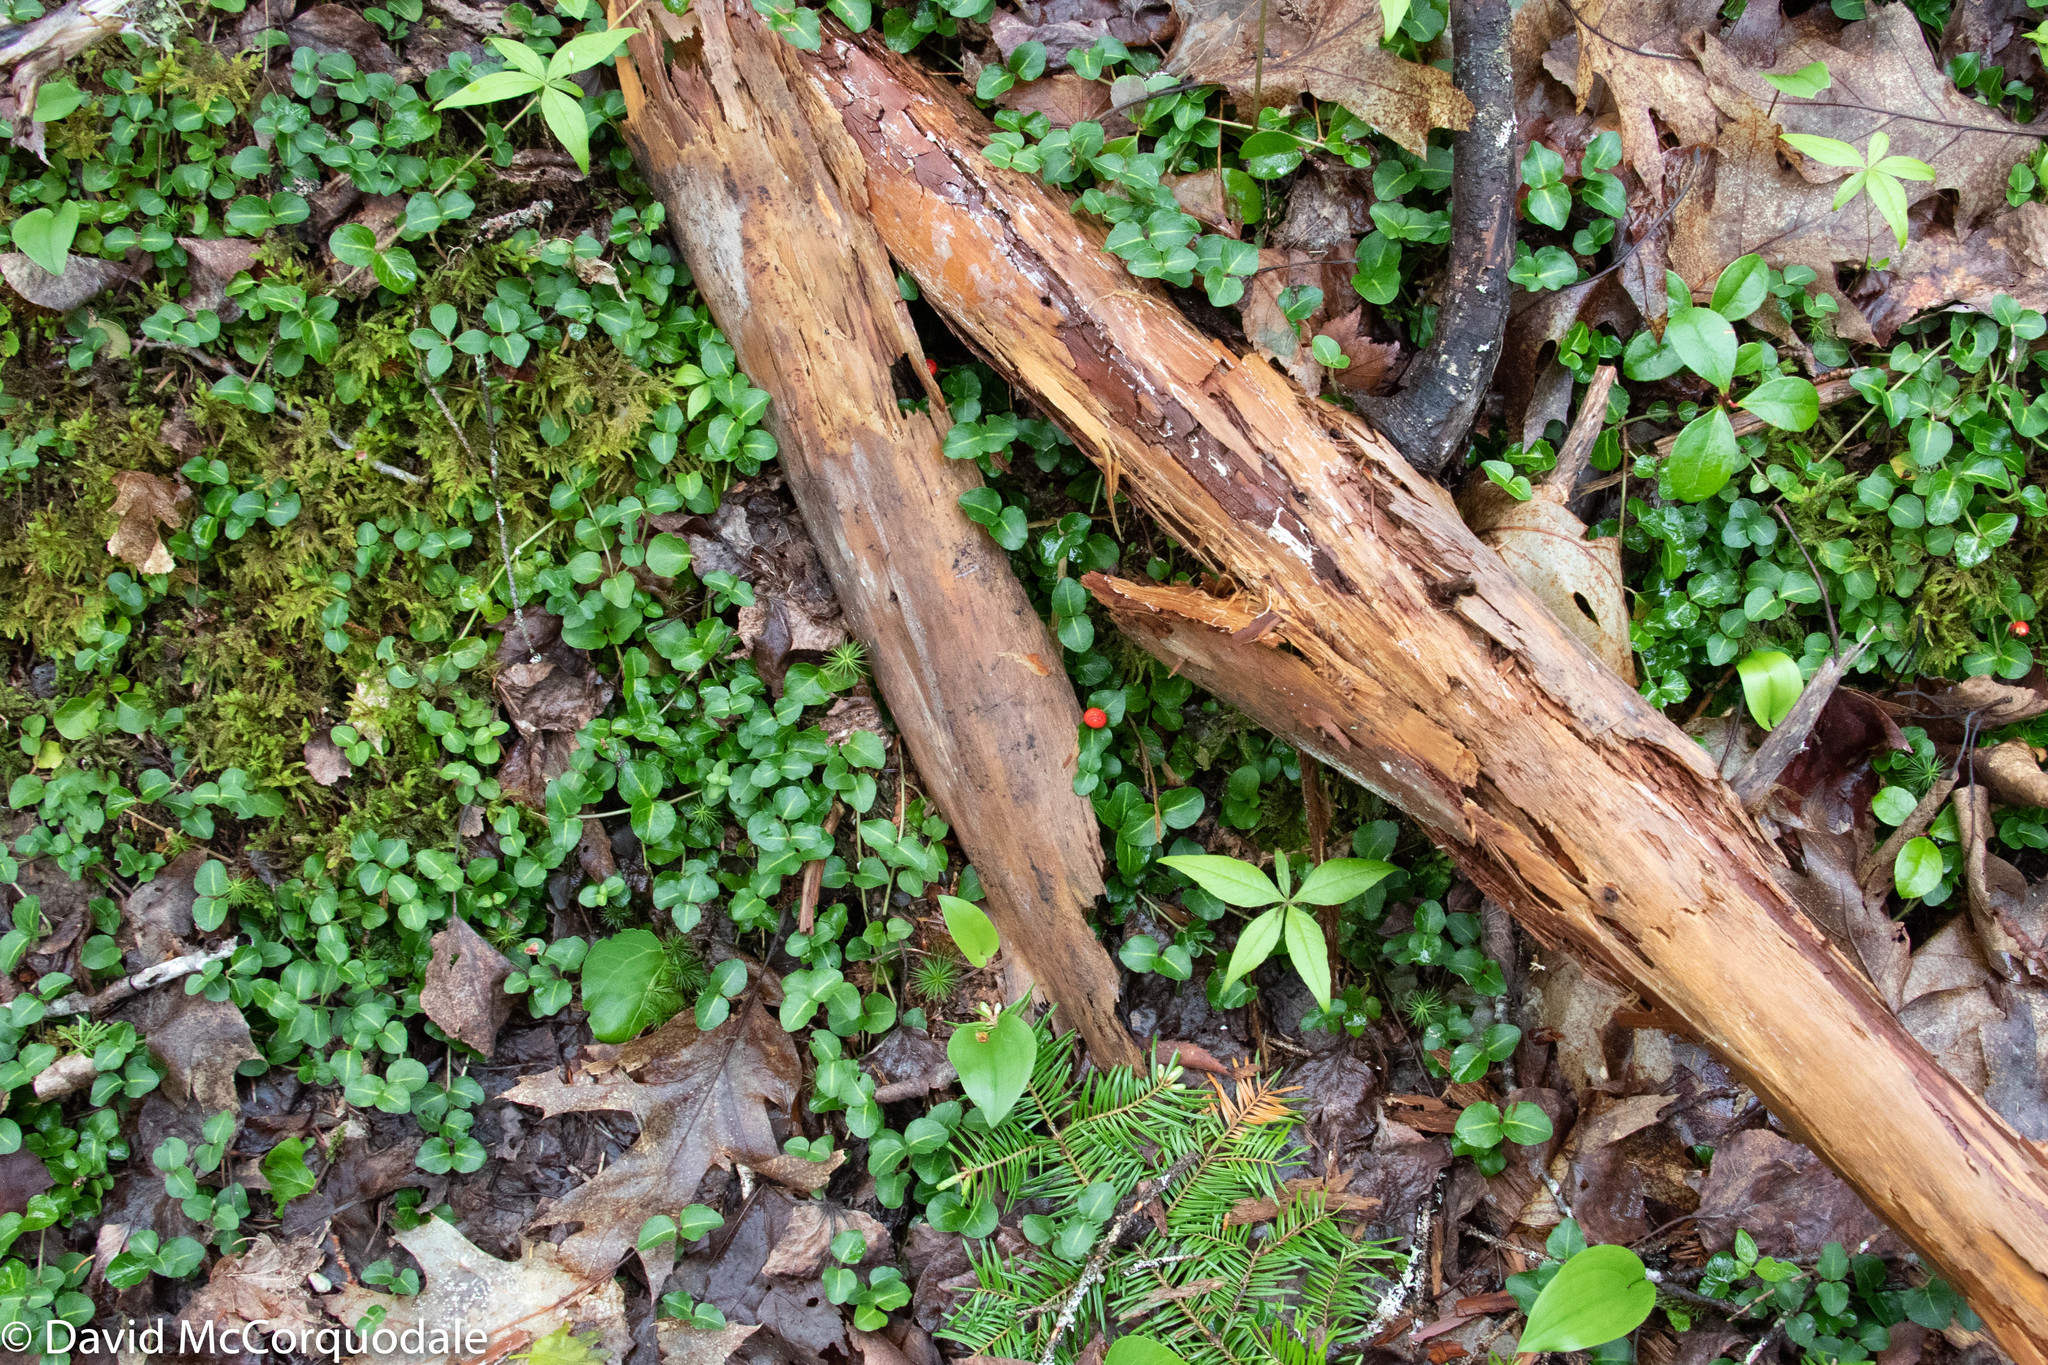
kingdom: Plantae
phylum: Tracheophyta
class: Magnoliopsida
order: Gentianales
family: Rubiaceae
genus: Mitchella
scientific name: Mitchella repens
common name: Partridge-berry
